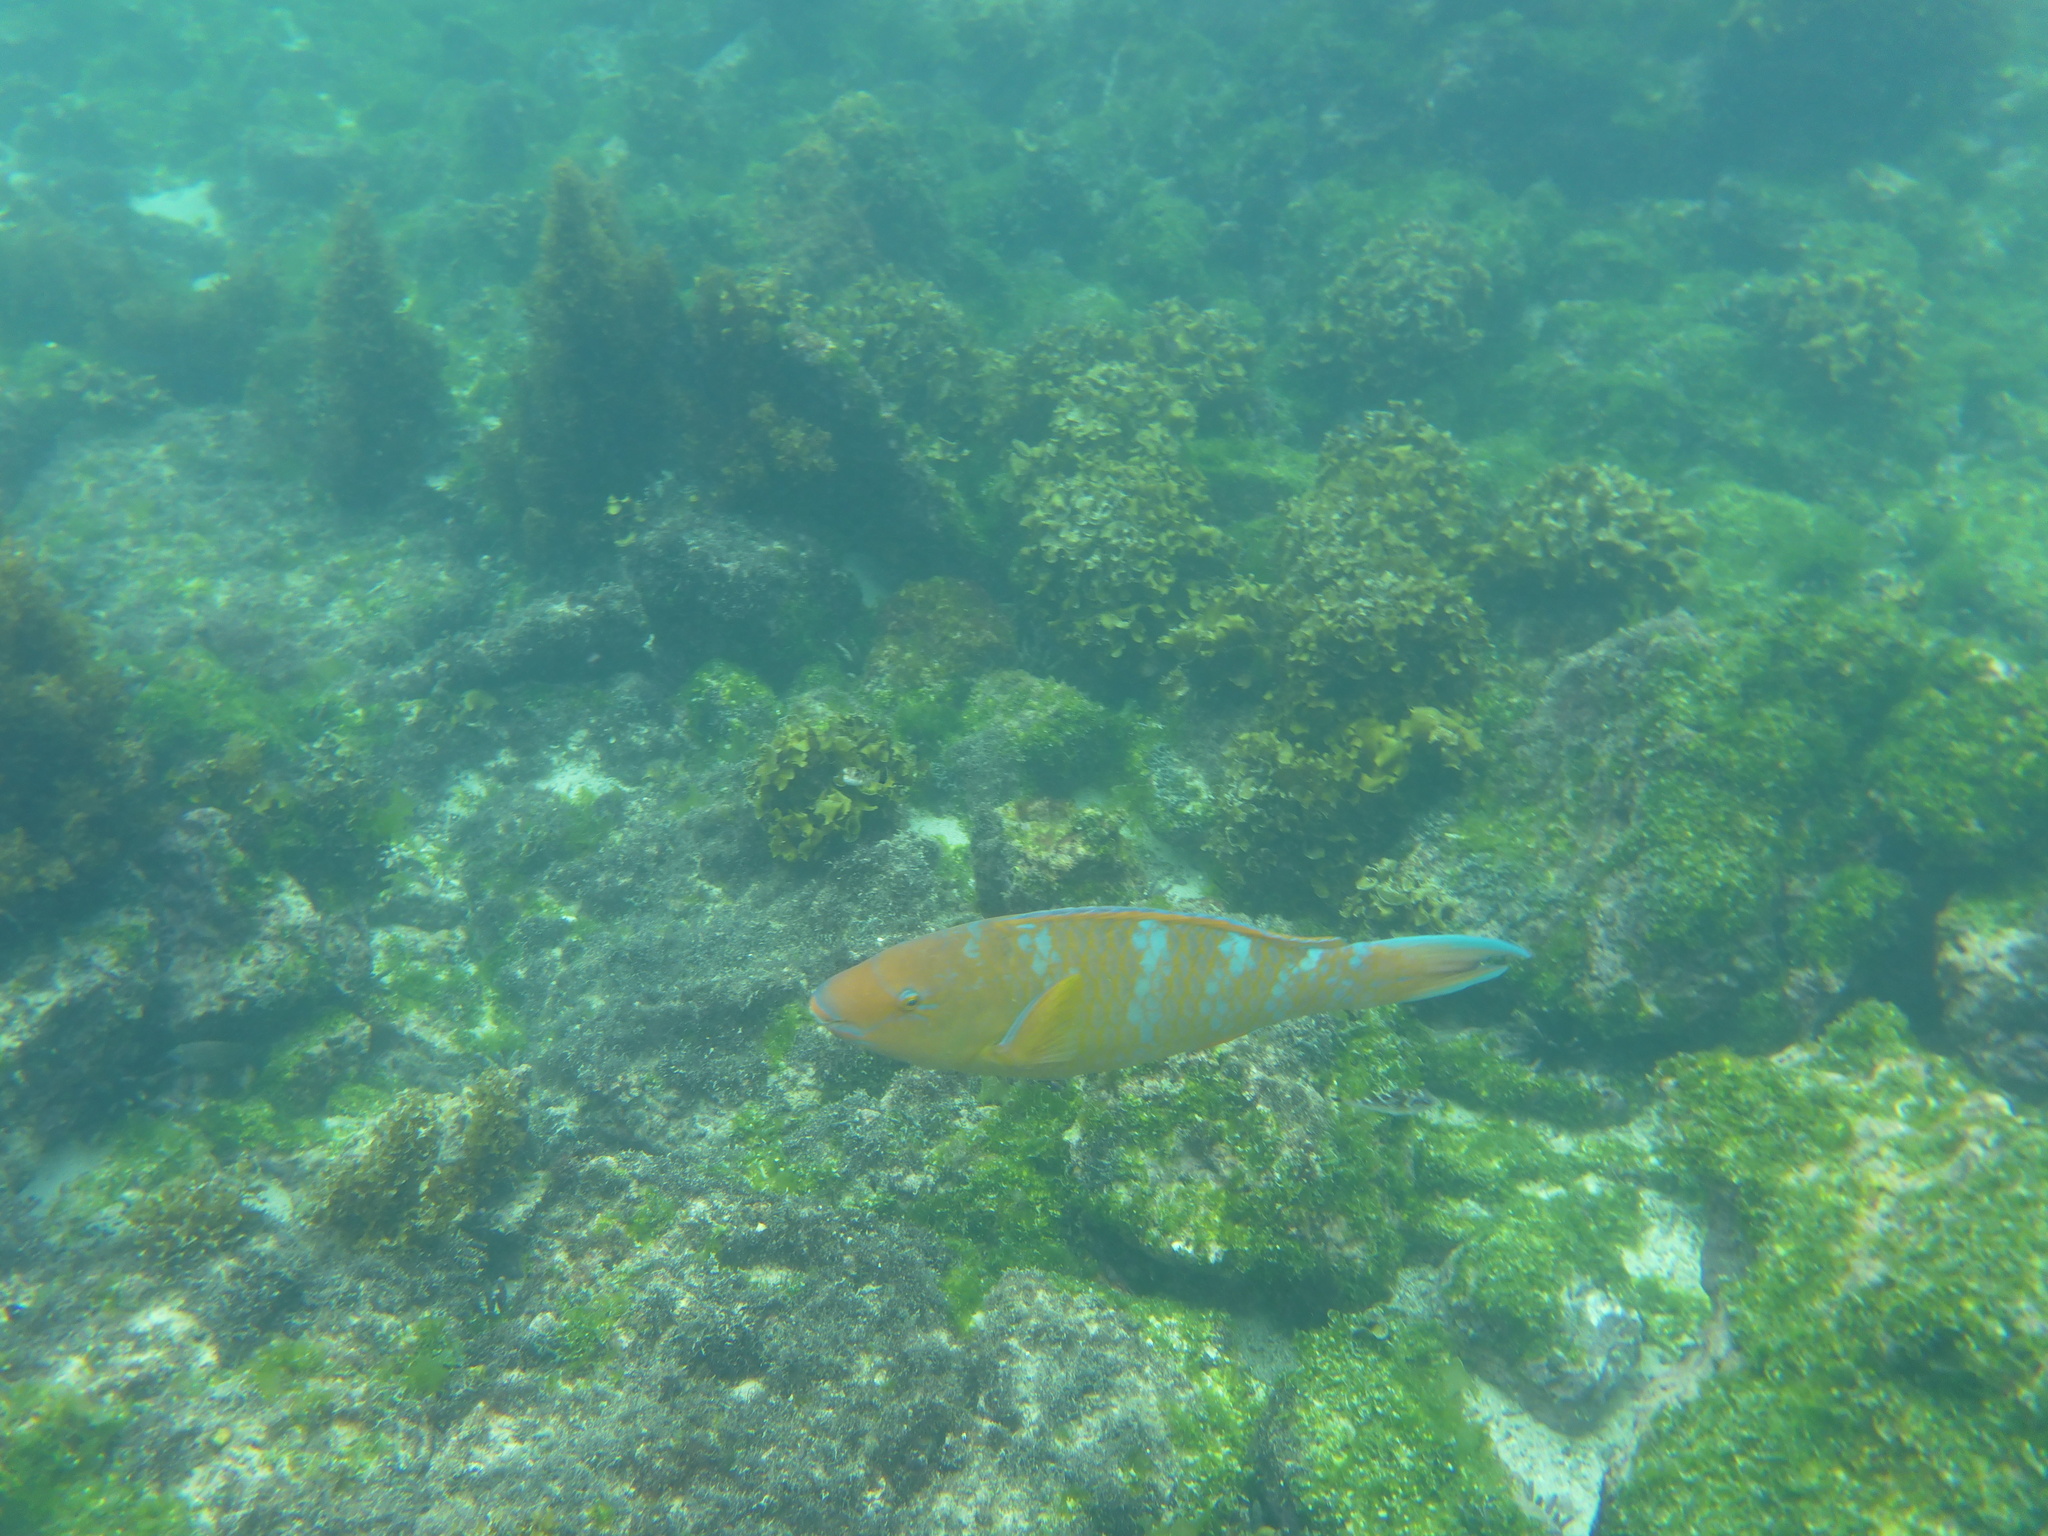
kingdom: Animalia
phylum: Chordata
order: Perciformes
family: Scaridae
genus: Scarus
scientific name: Scarus ghobban
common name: Blue-barred parrotfish
